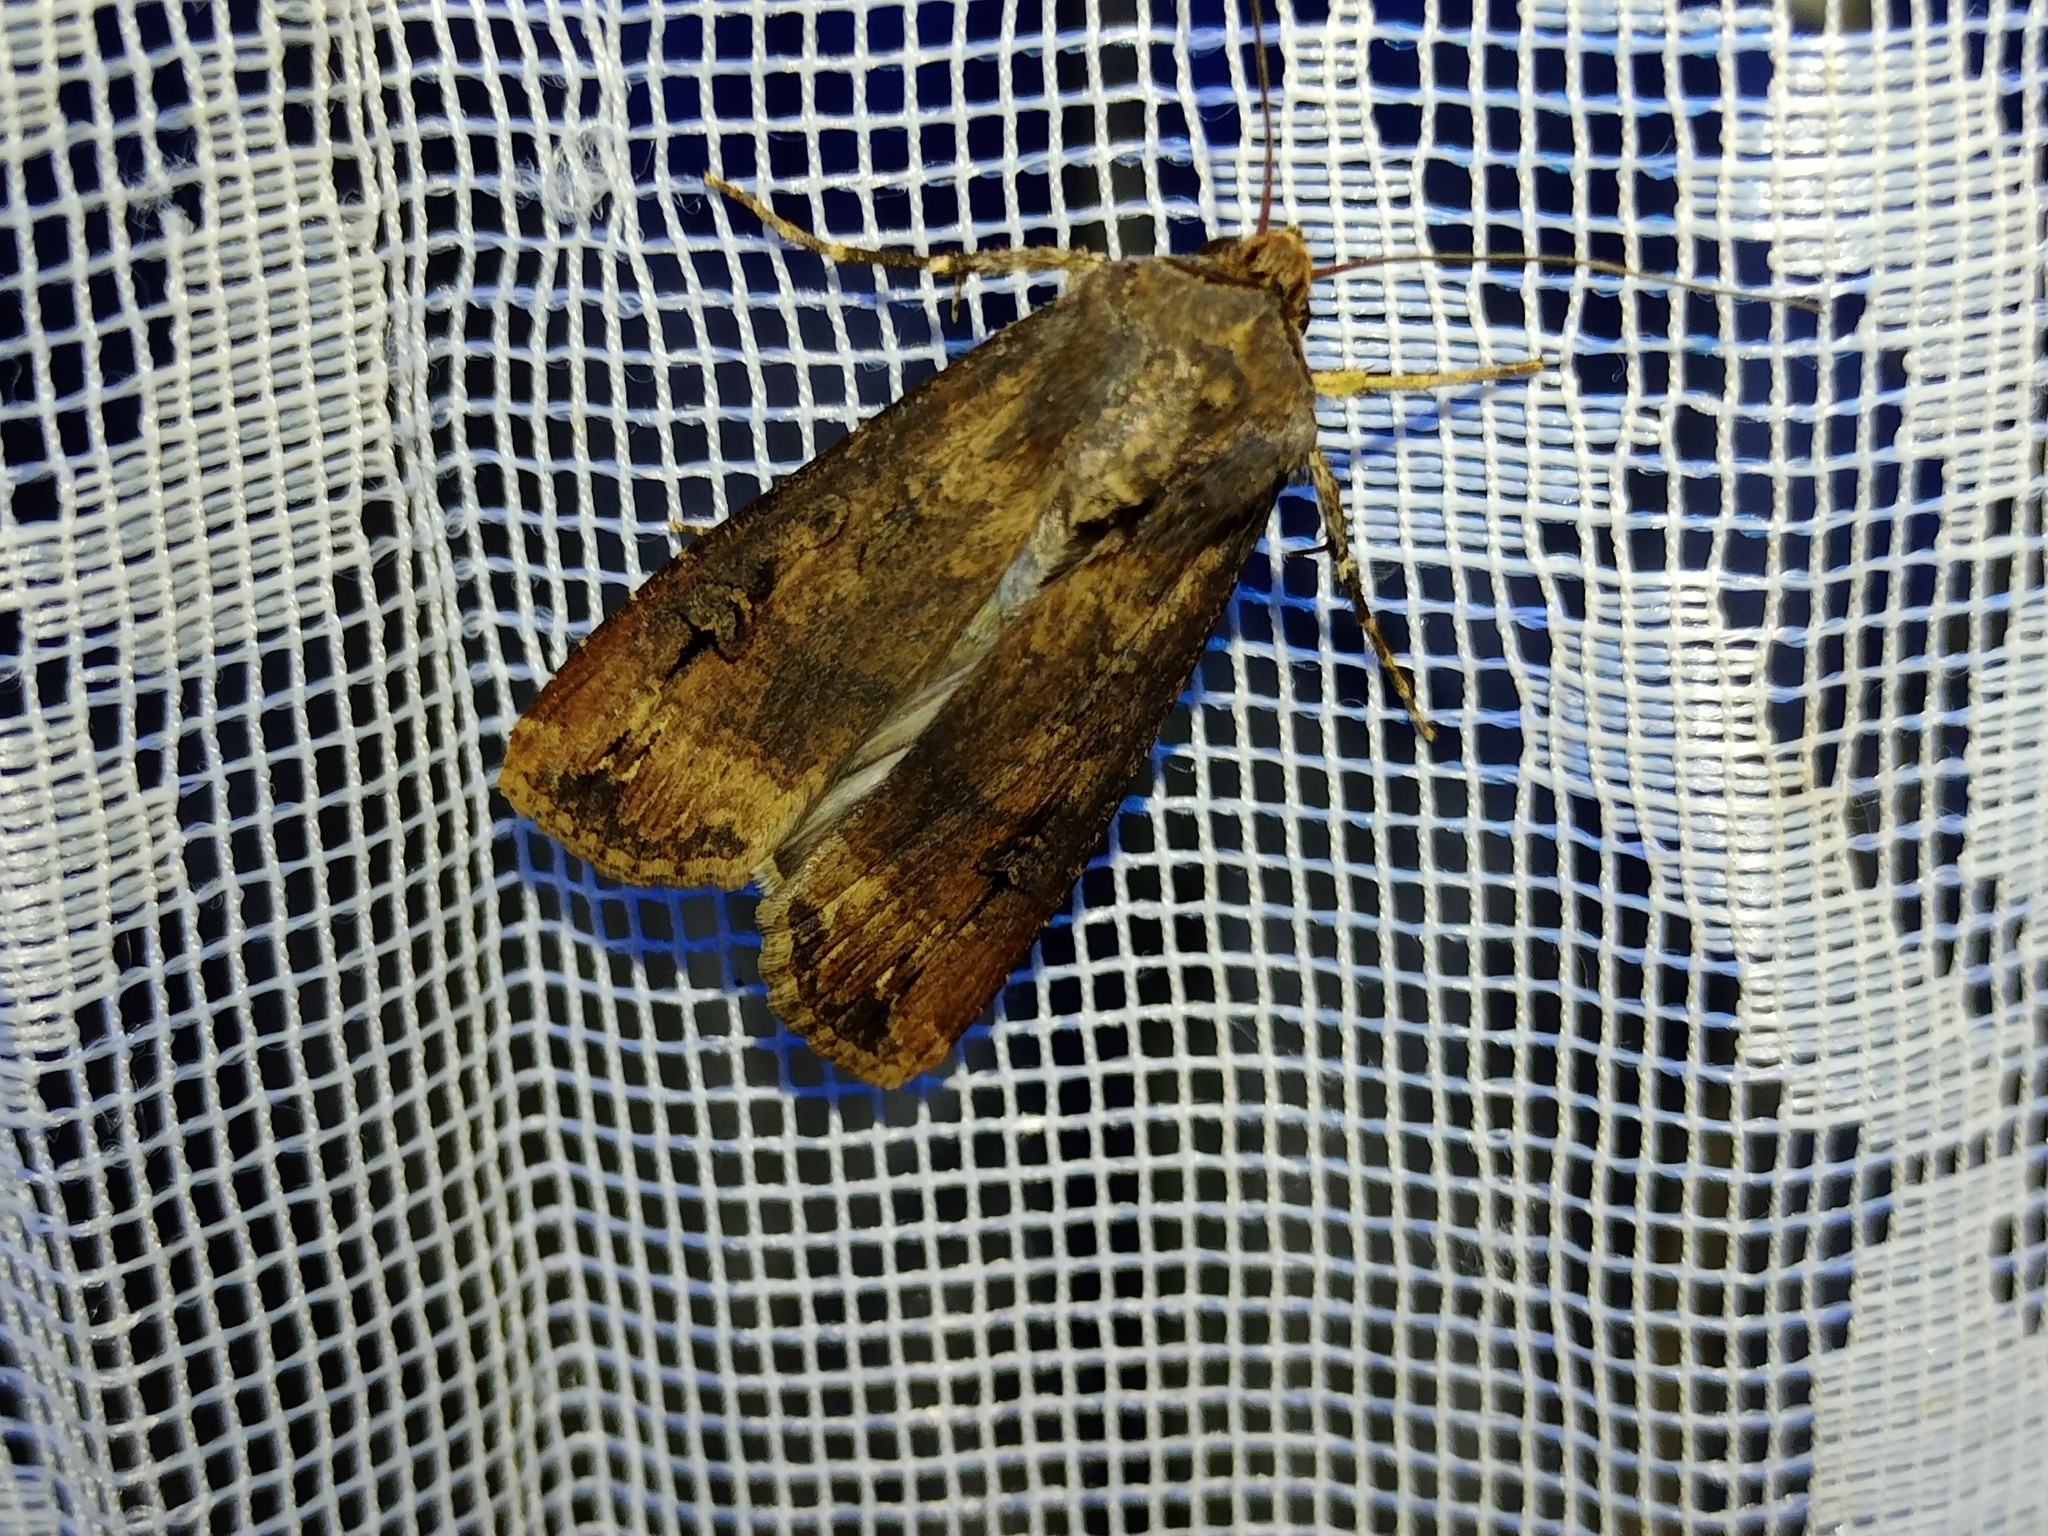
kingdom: Animalia
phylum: Arthropoda
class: Insecta
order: Lepidoptera
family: Noctuidae
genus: Agrotis
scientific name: Agrotis ipsilon
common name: Dark sword-grass
